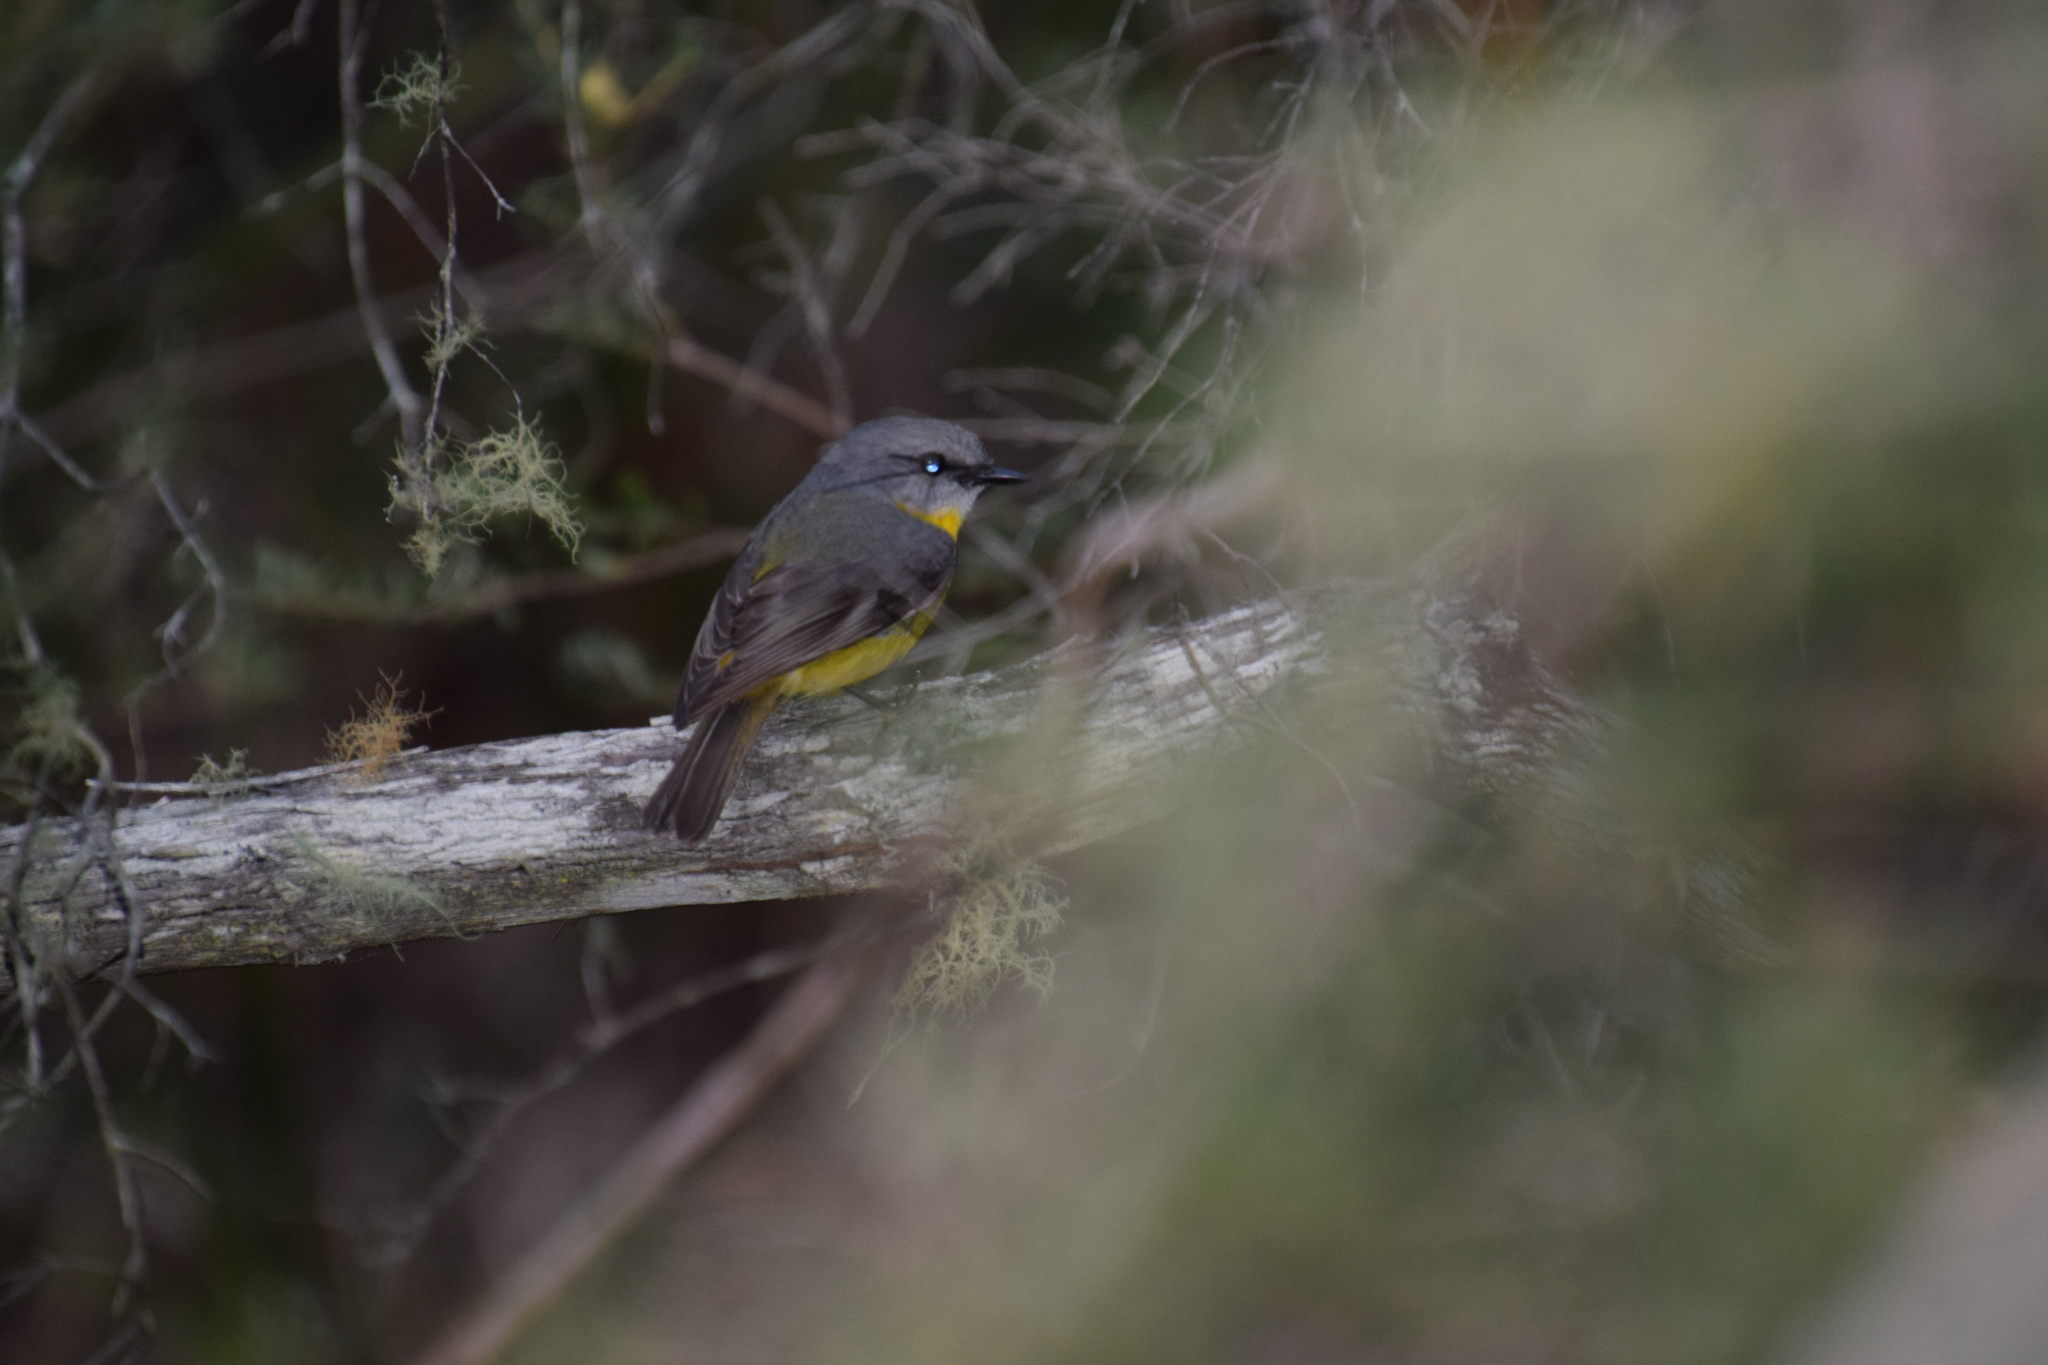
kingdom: Animalia
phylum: Chordata
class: Aves
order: Passeriformes
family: Petroicidae
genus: Eopsaltria
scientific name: Eopsaltria australis
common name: Eastern yellow robin
